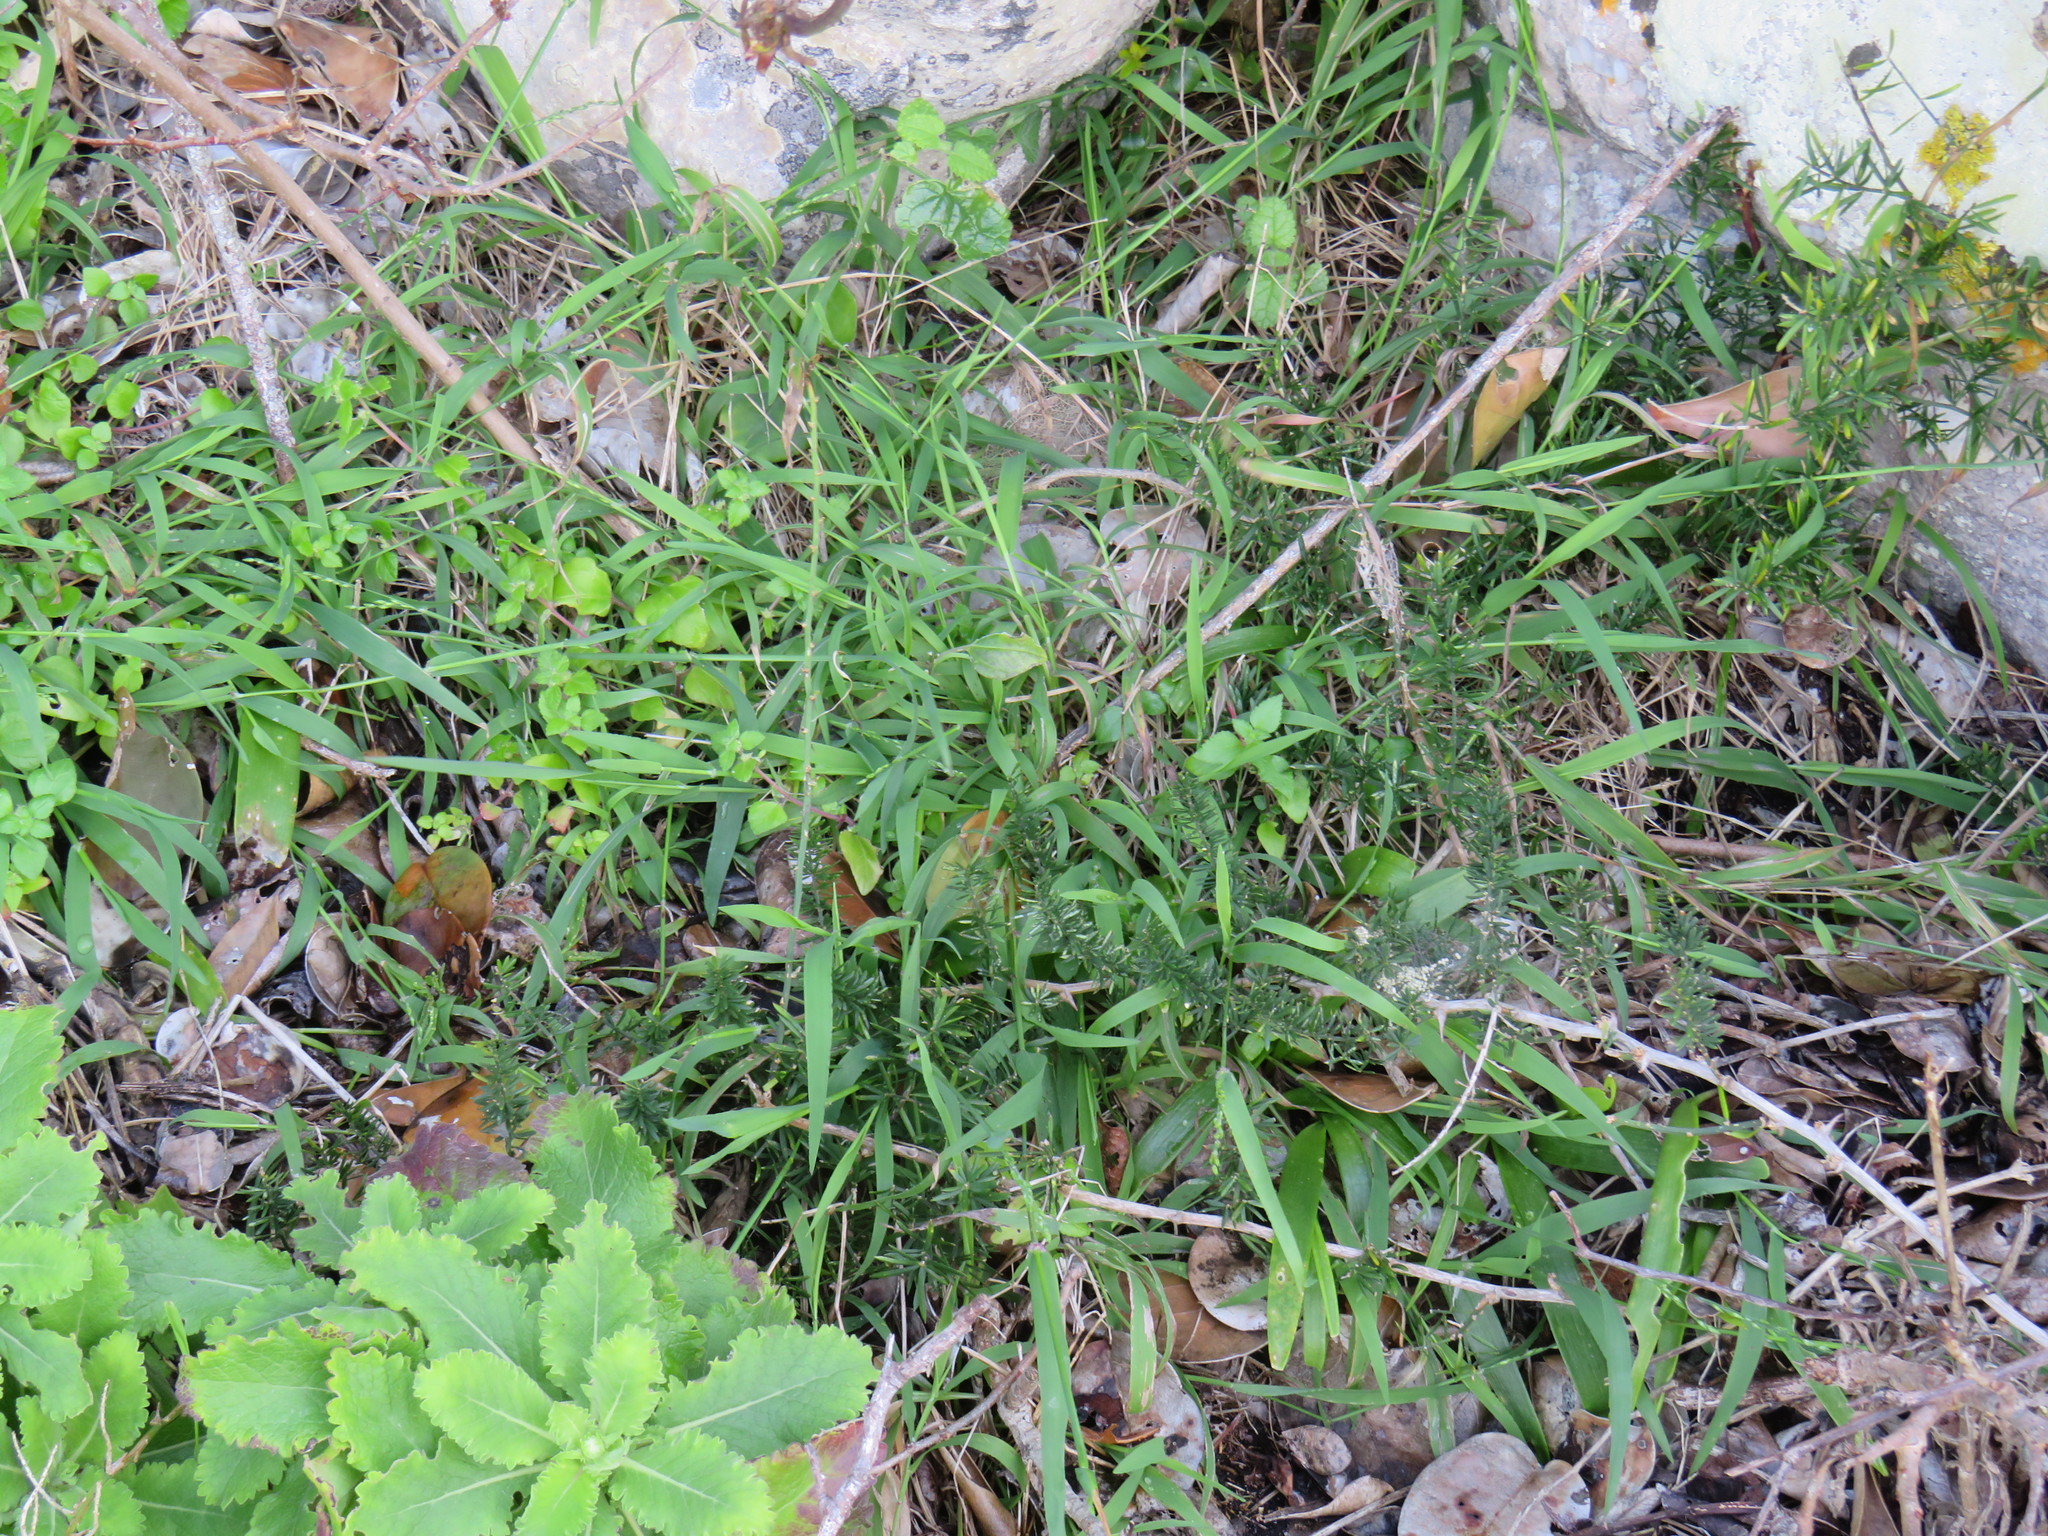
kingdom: Plantae
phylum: Tracheophyta
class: Liliopsida
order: Poales
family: Poaceae
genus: Ehrharta
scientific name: Ehrharta erecta
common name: Panic veldtgrass
